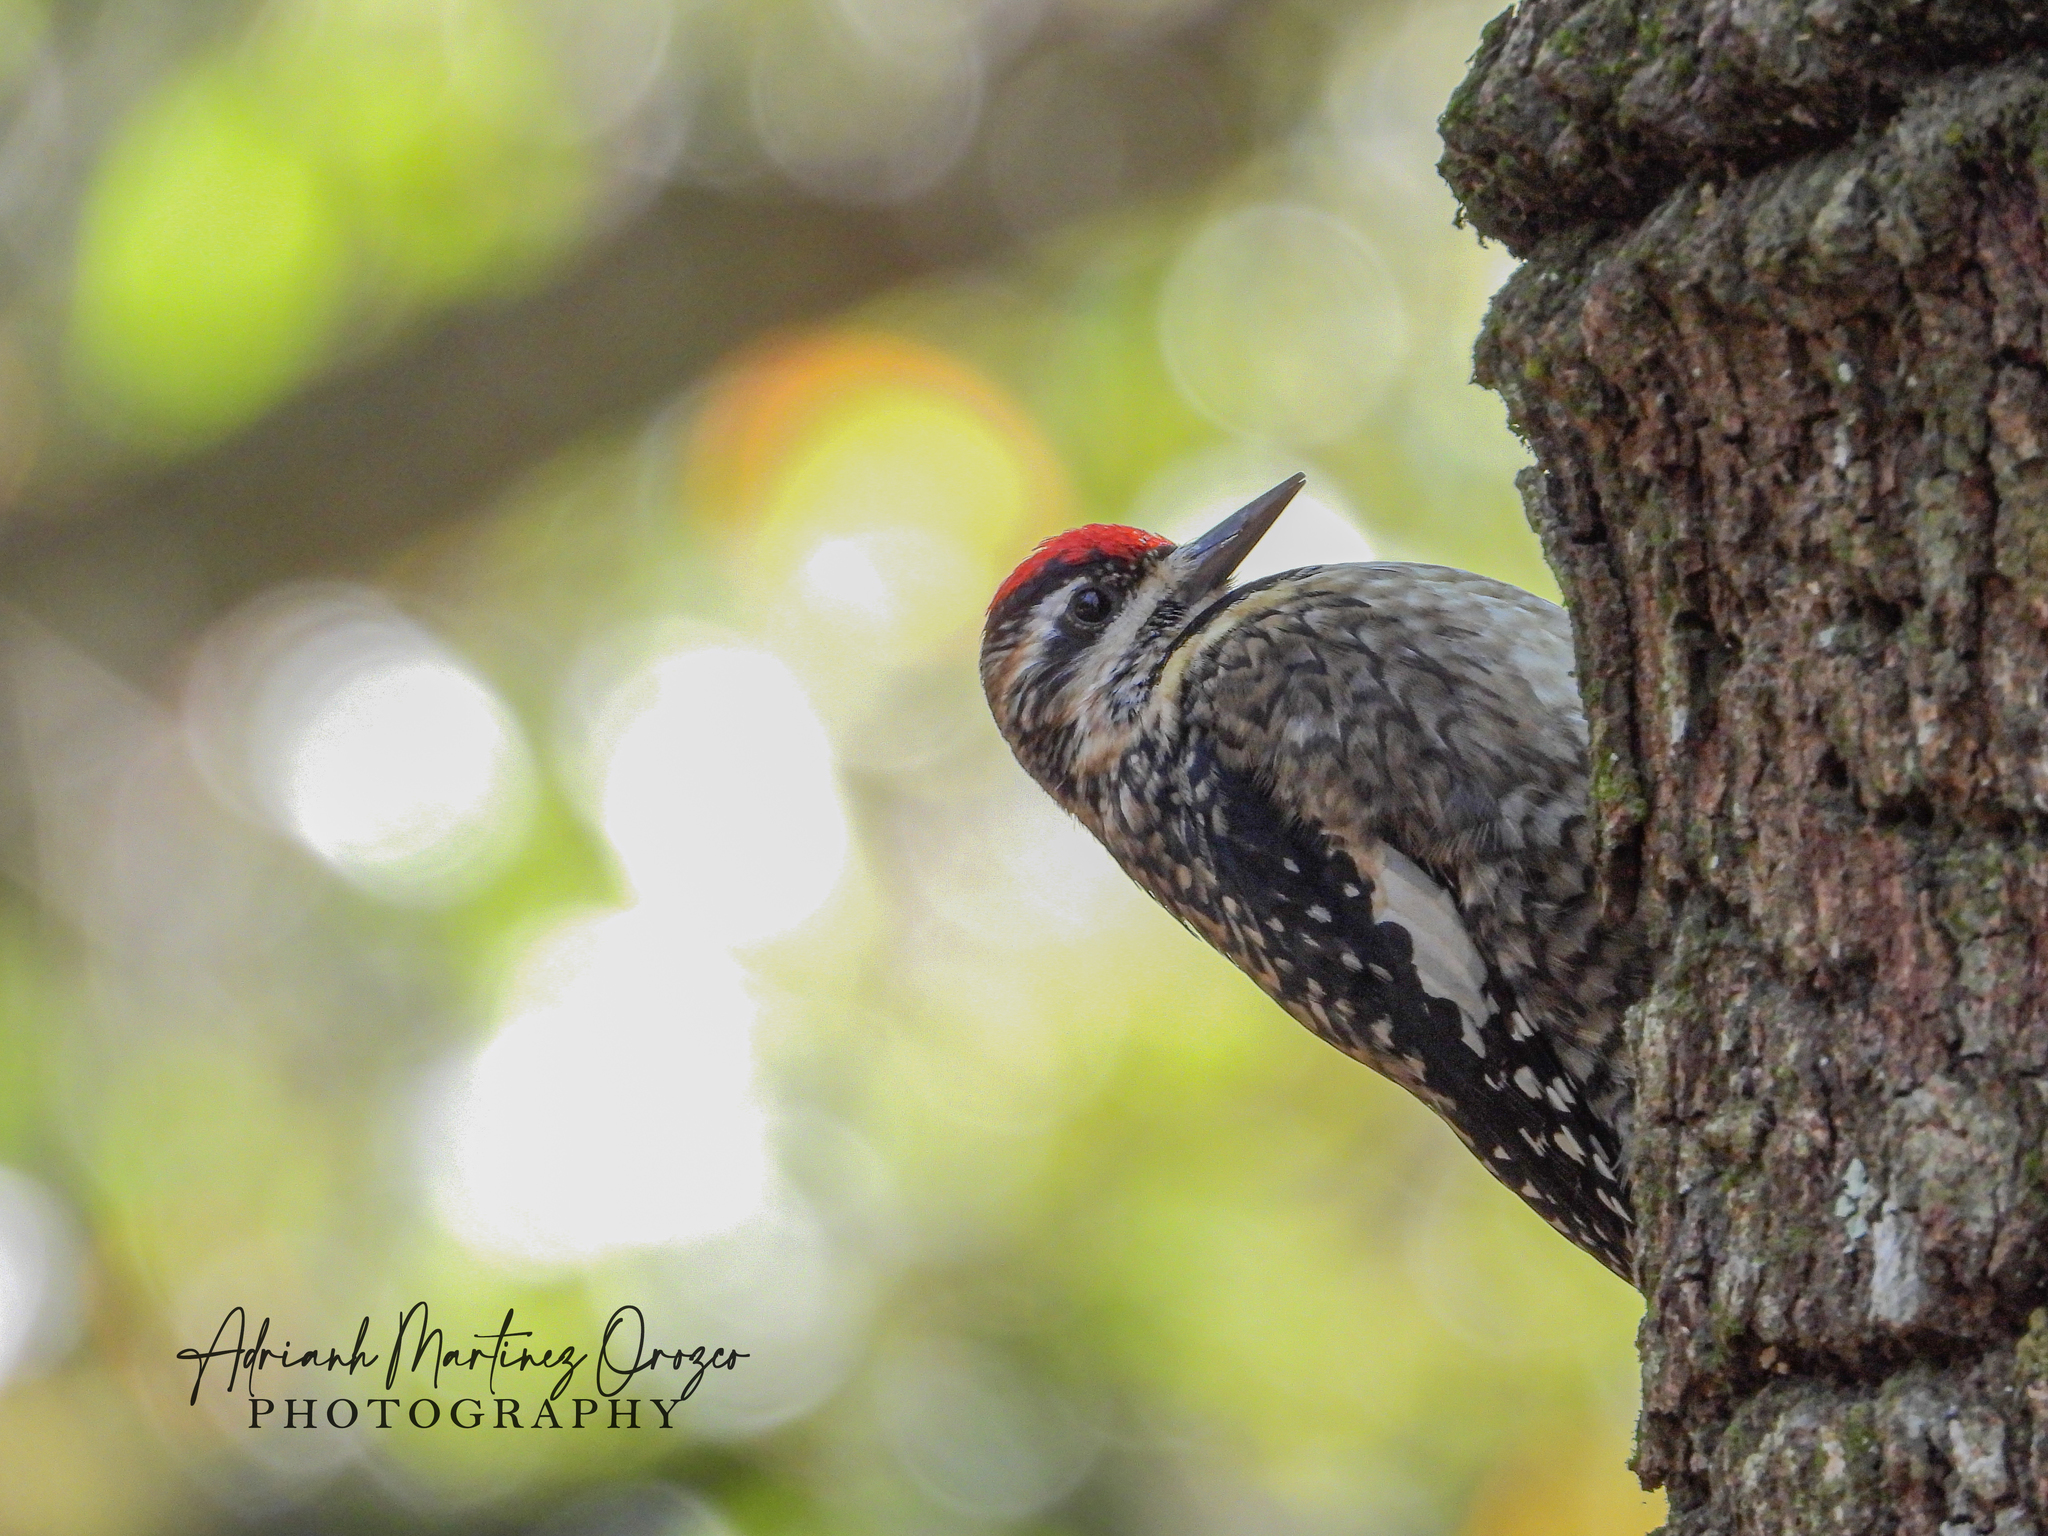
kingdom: Animalia
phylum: Chordata
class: Aves
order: Piciformes
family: Picidae
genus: Sphyrapicus
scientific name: Sphyrapicus varius
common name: Yellow-bellied sapsucker
